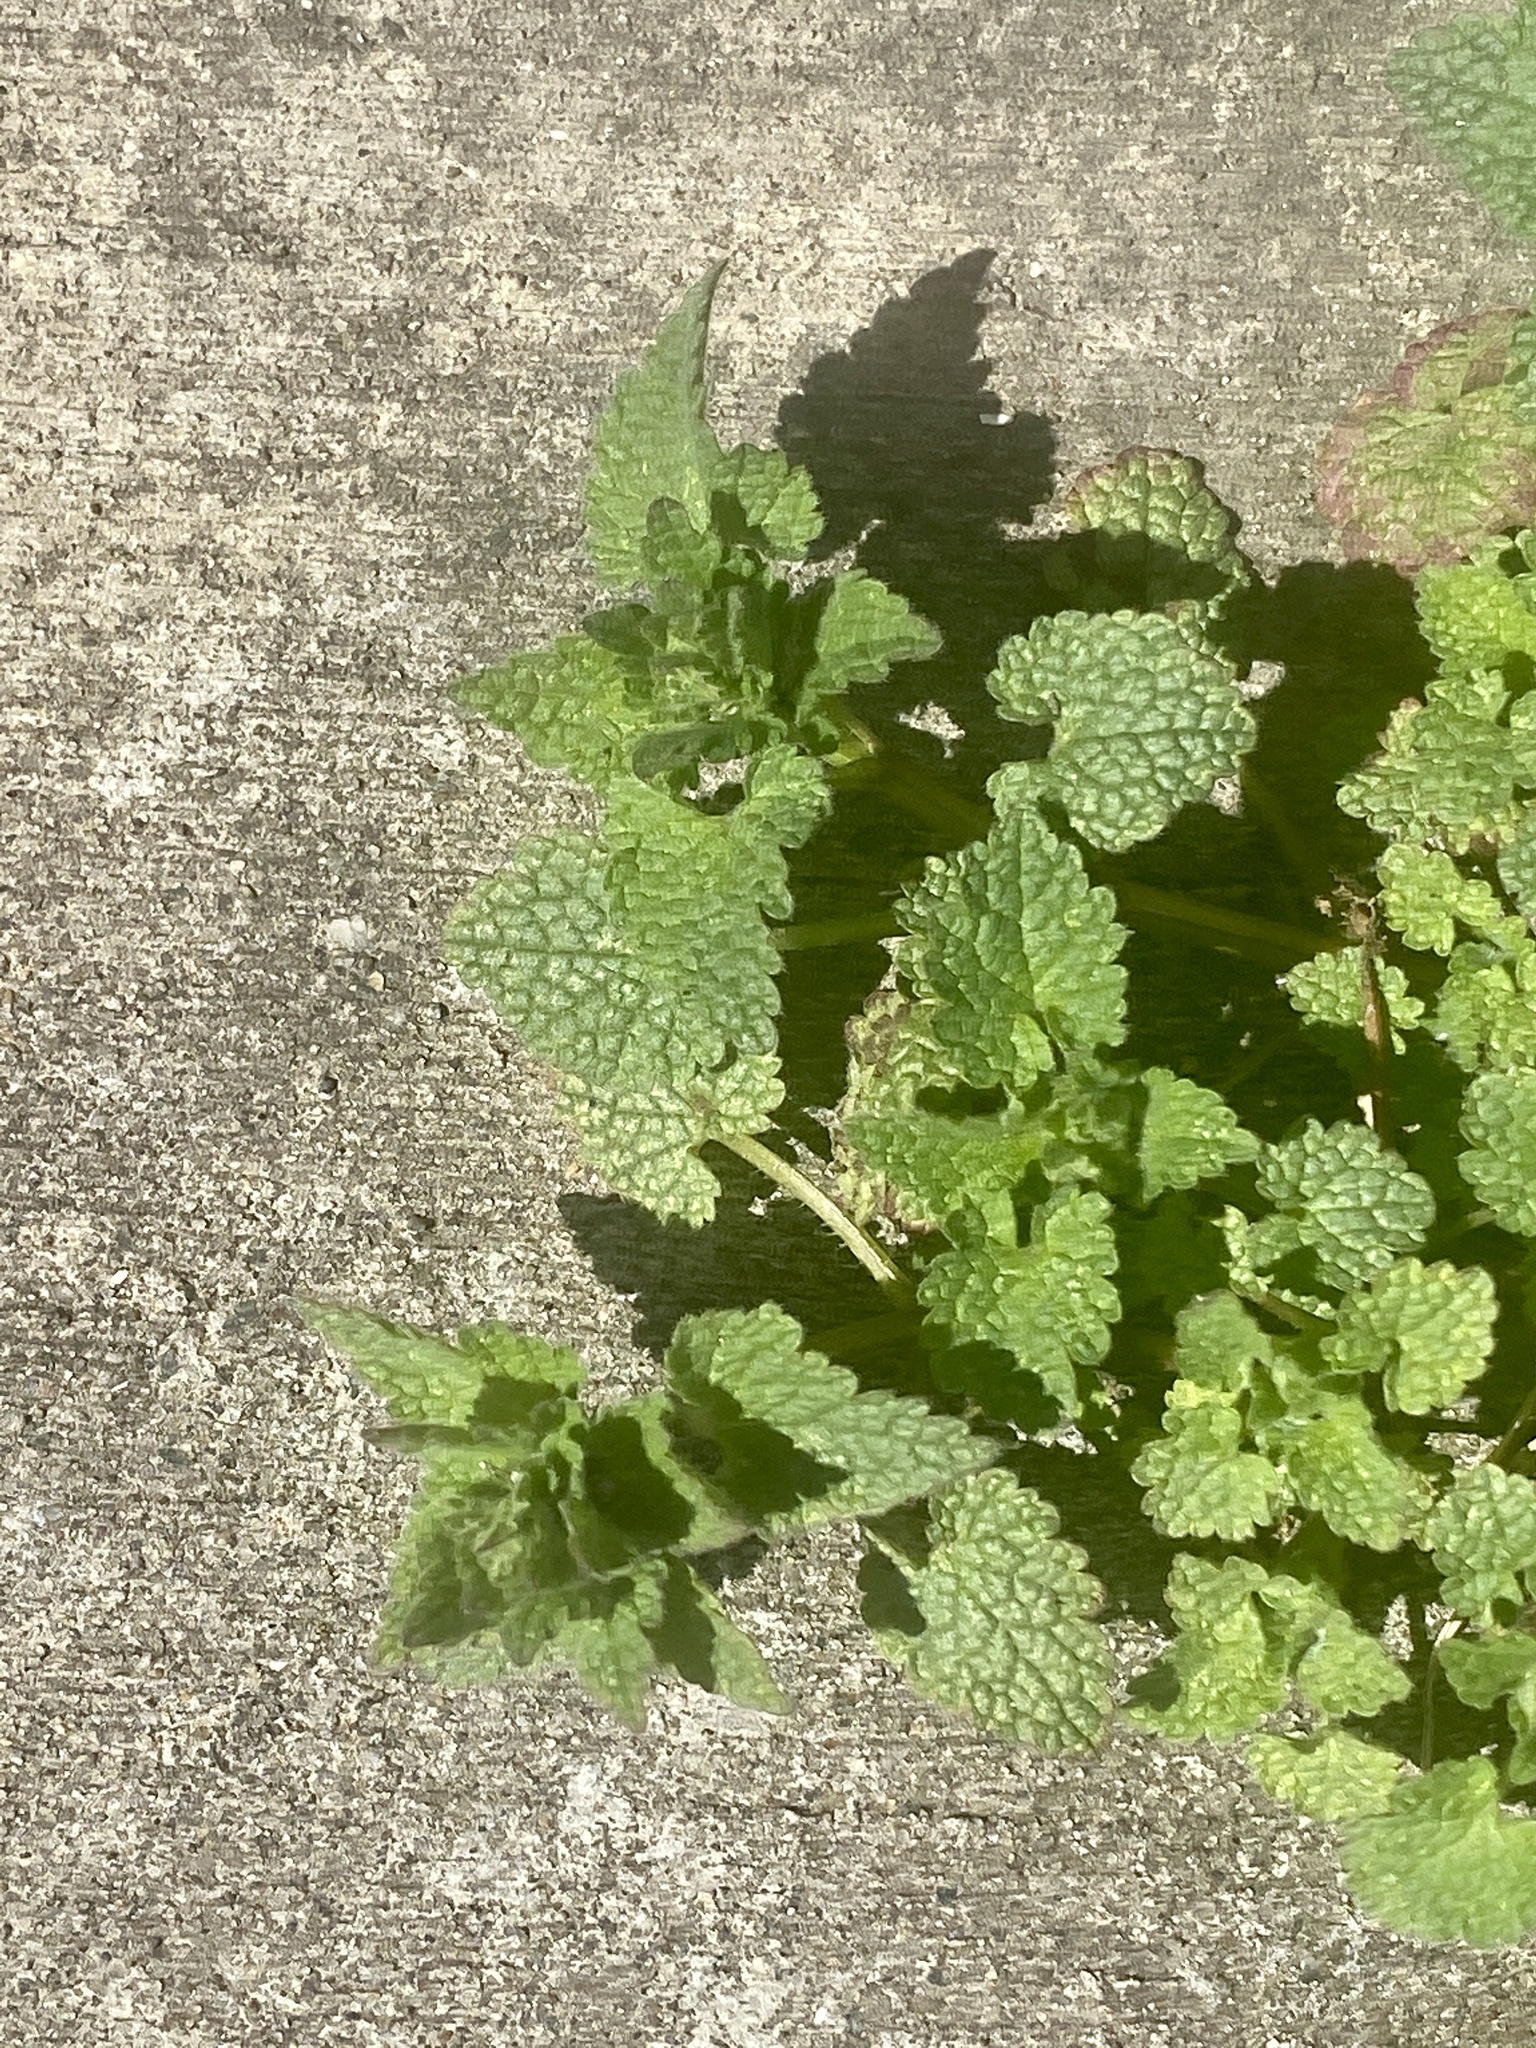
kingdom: Plantae
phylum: Tracheophyta
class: Magnoliopsida
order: Lamiales
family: Lamiaceae
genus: Lamium
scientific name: Lamium purpureum
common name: Red dead-nettle
